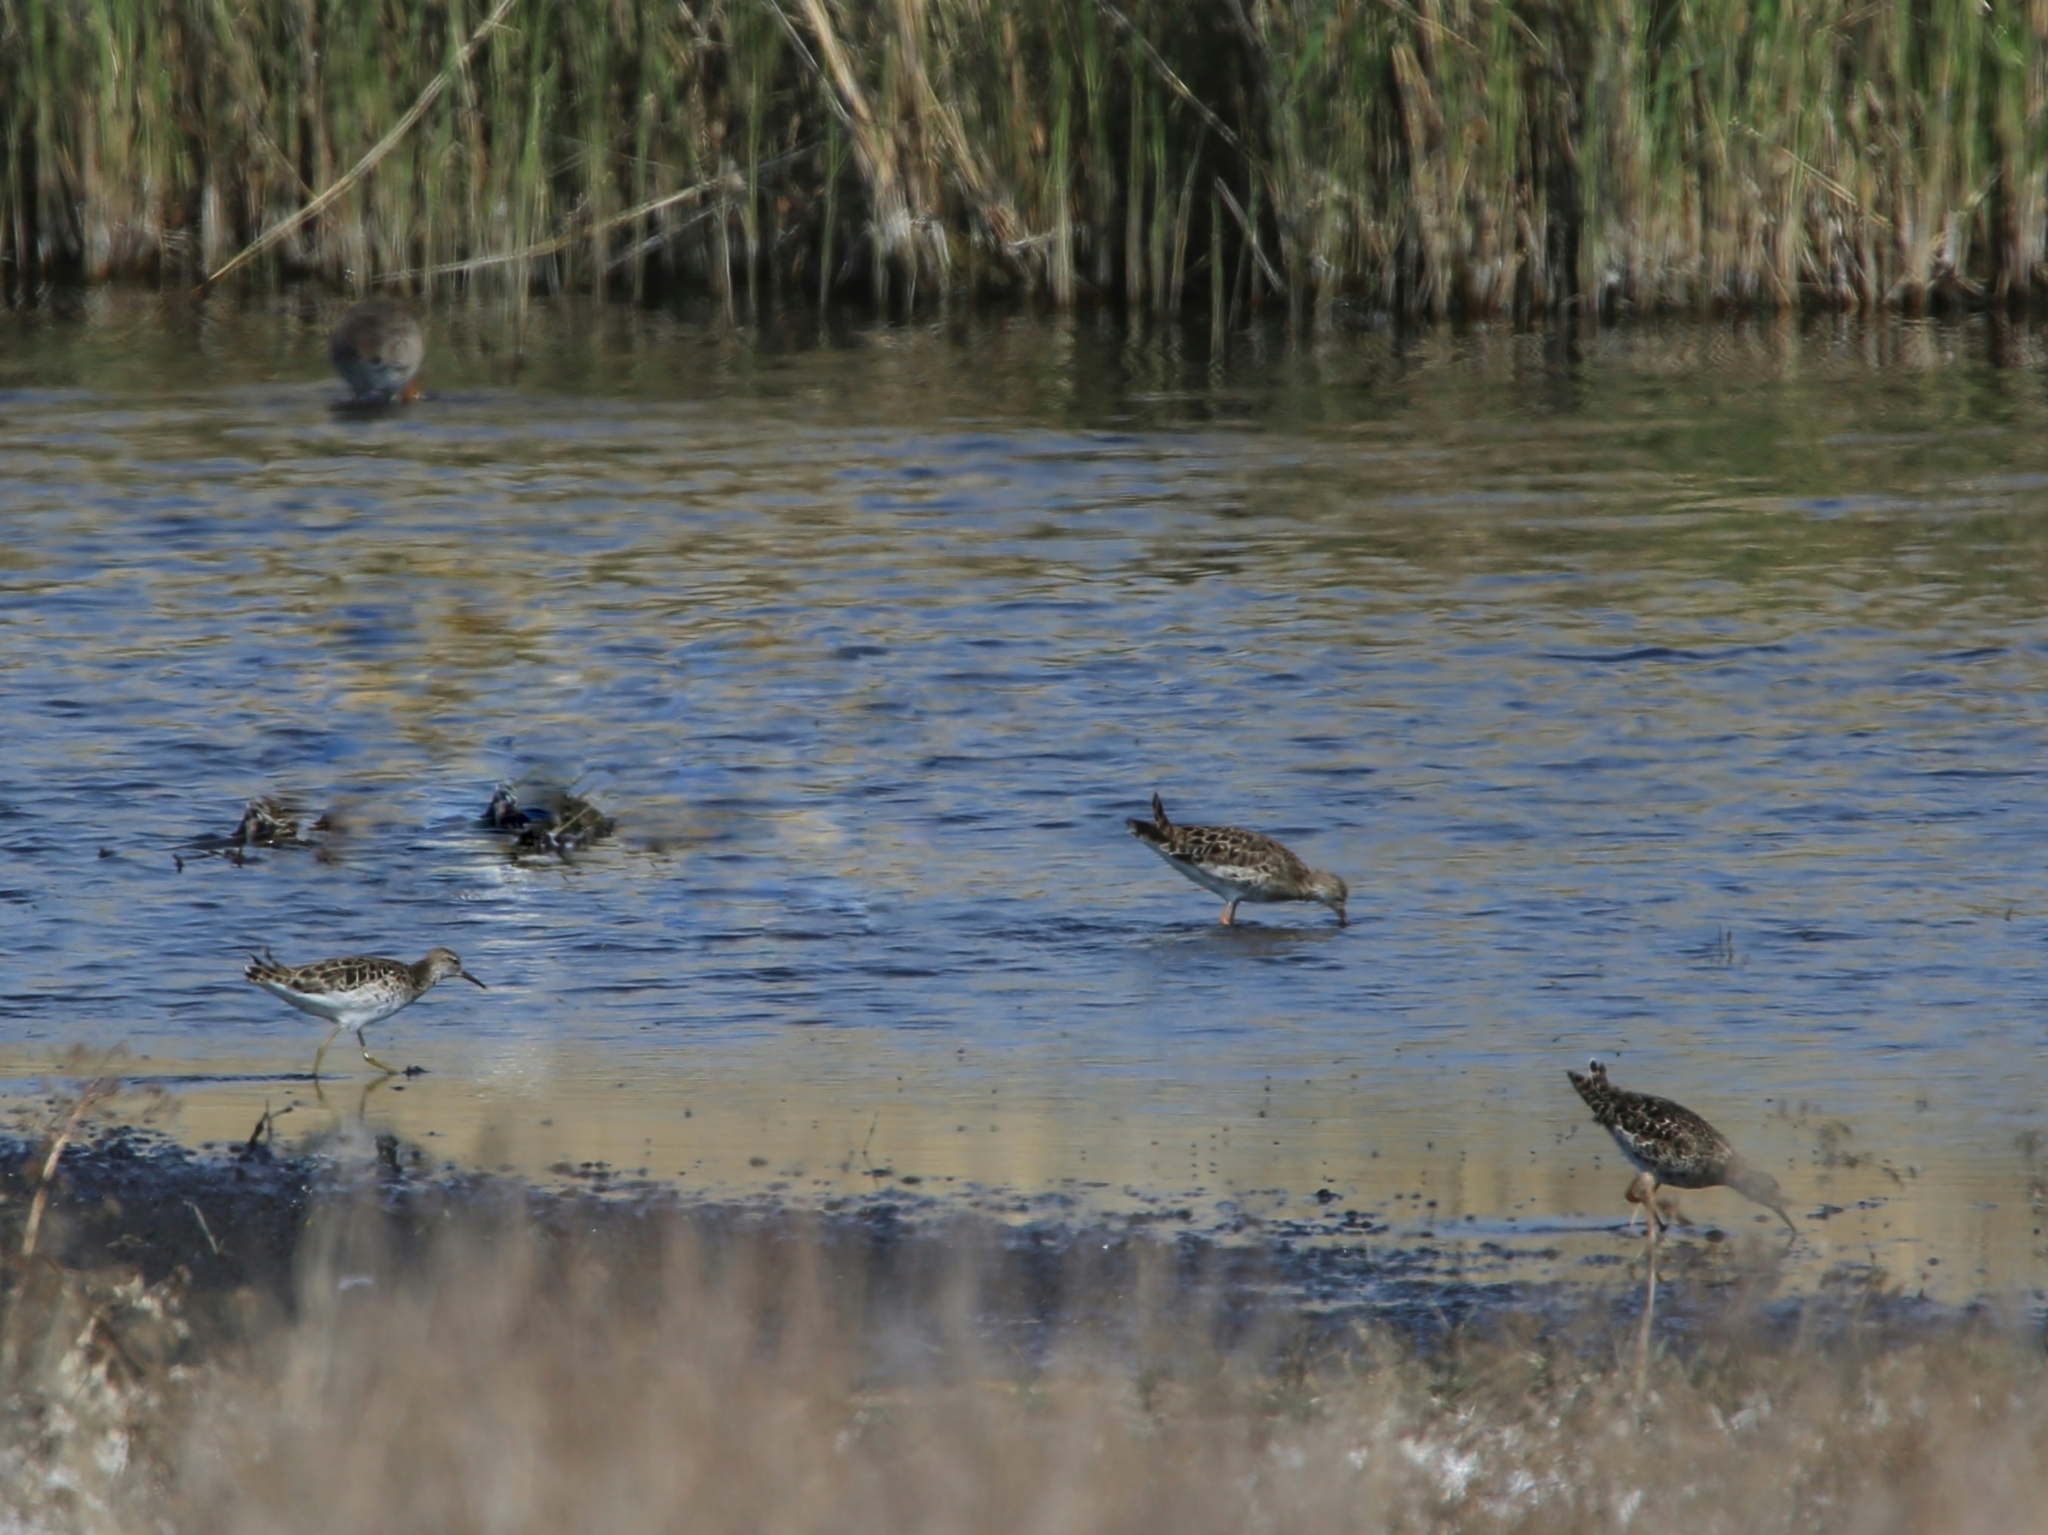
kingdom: Animalia
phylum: Chordata
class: Aves
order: Charadriiformes
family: Scolopacidae
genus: Calidris
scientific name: Calidris pugnax
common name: Ruff
